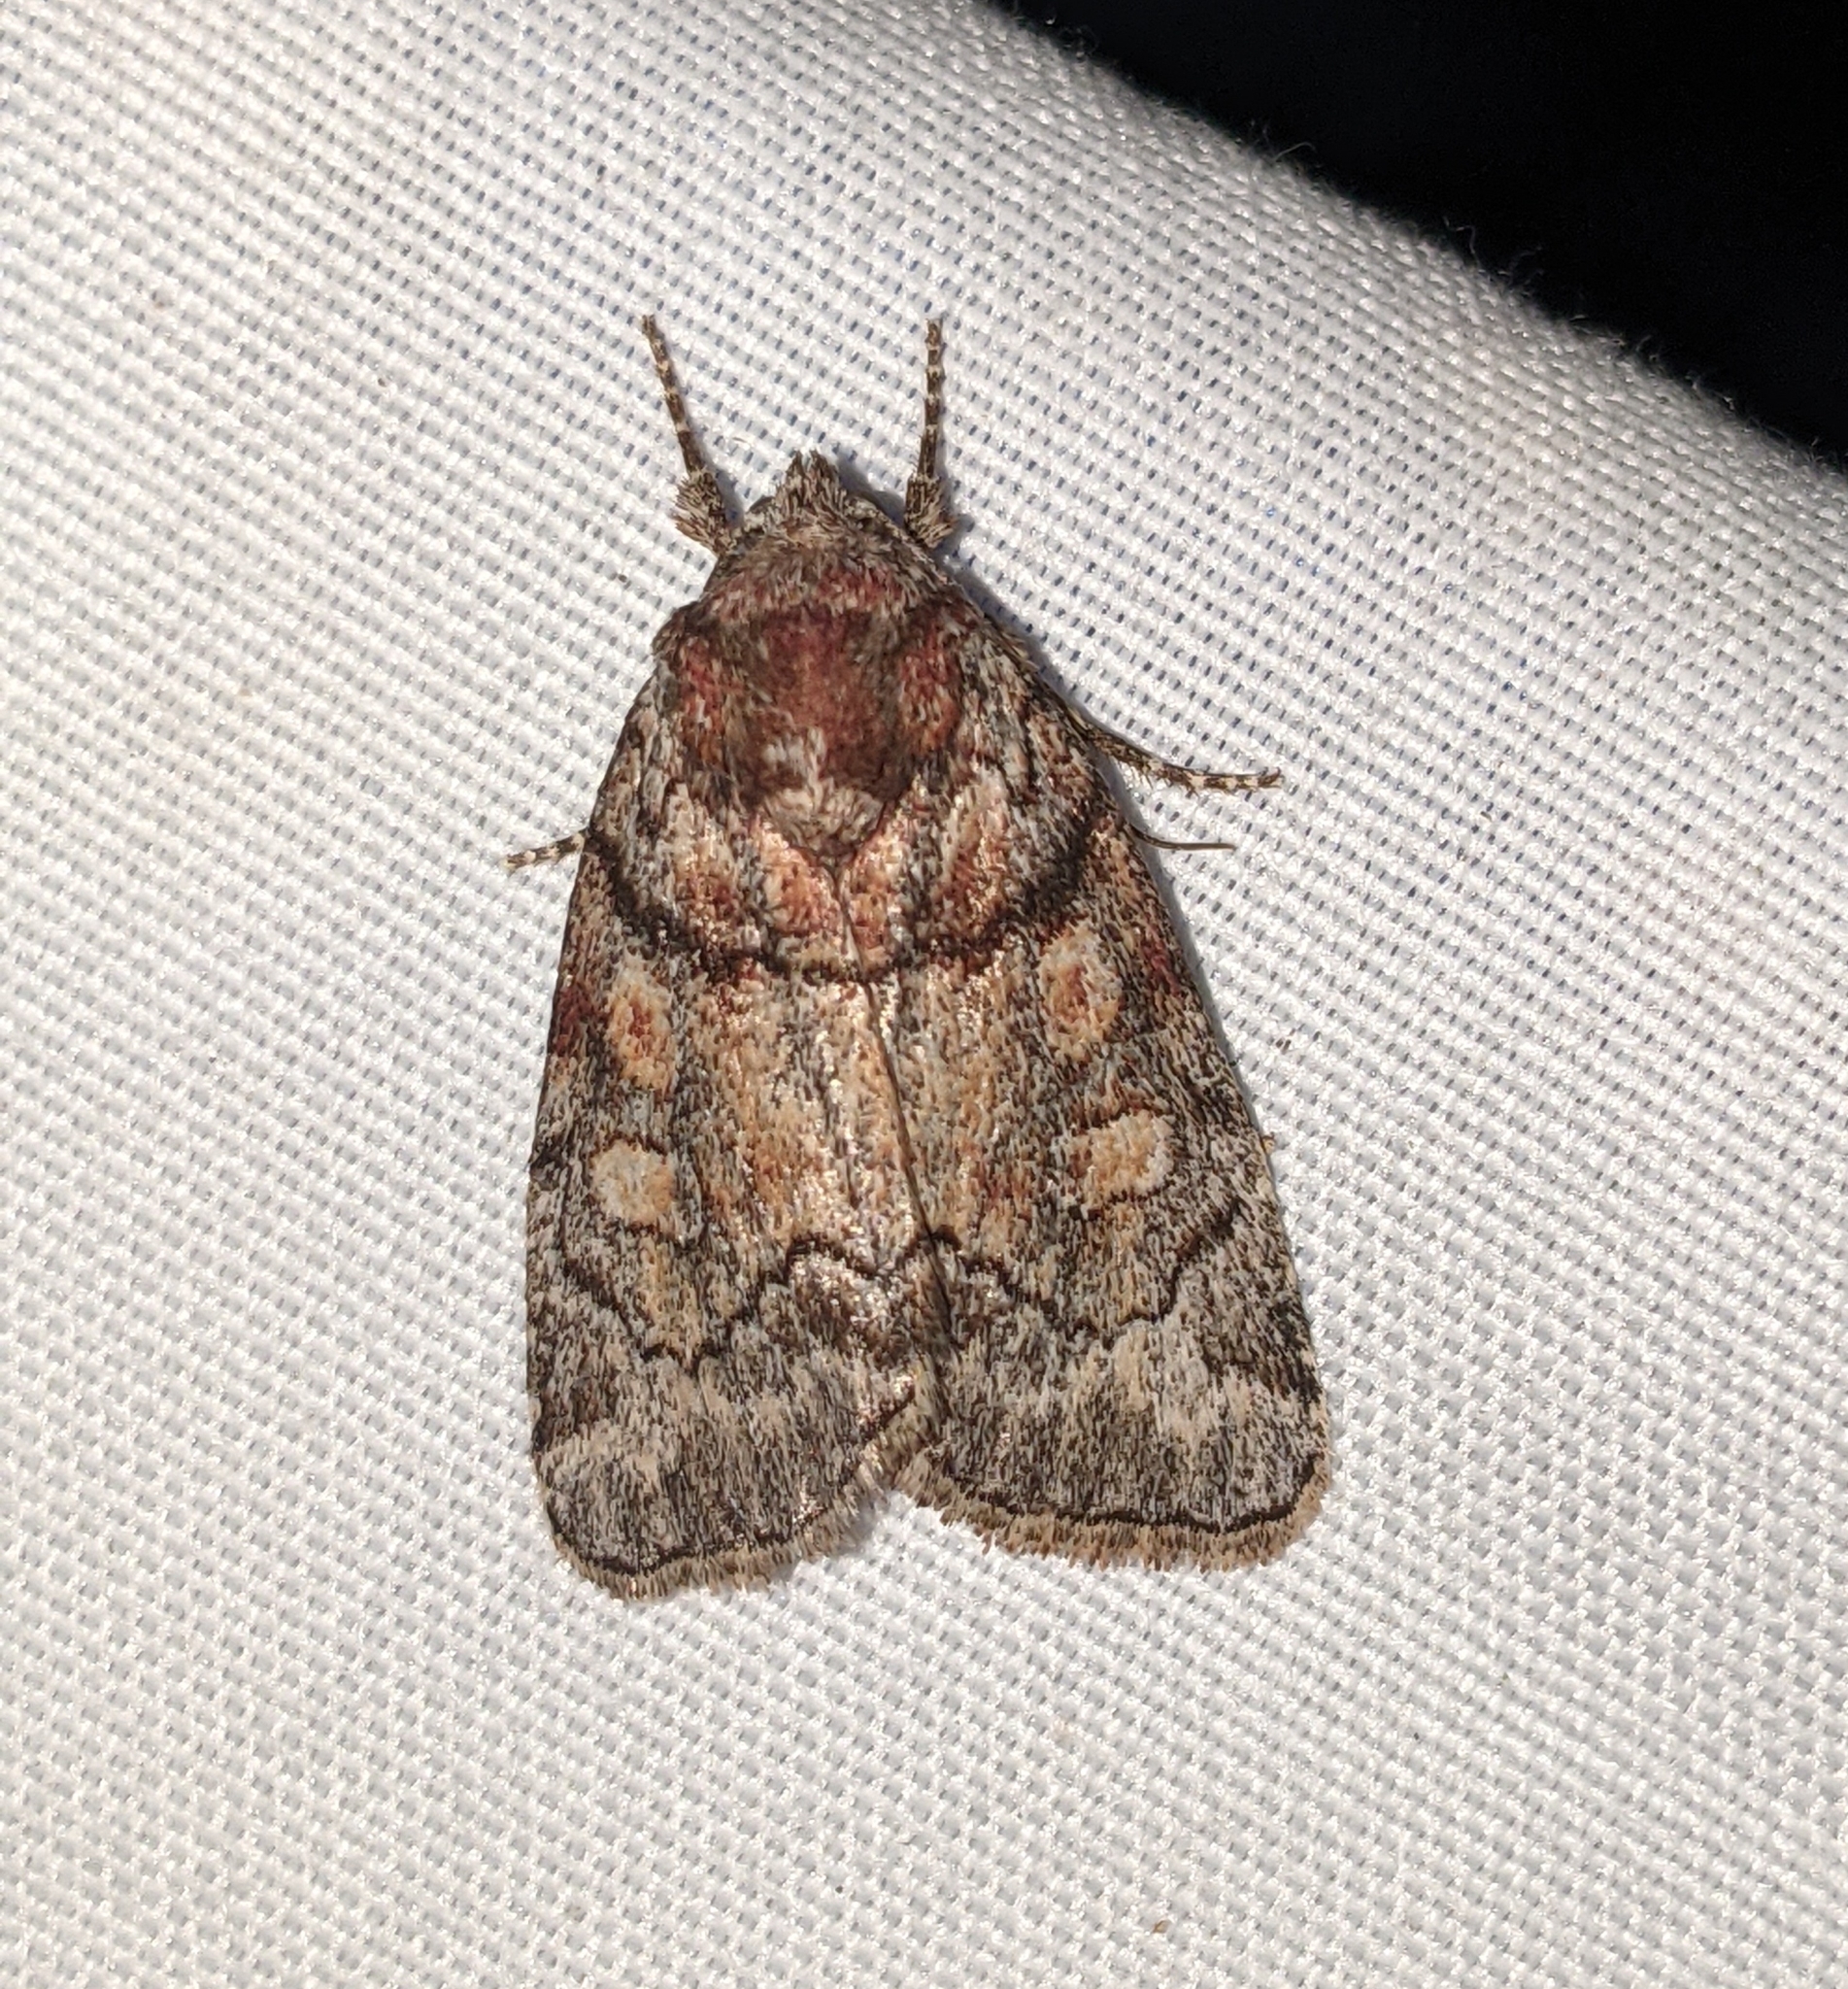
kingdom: Animalia
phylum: Arthropoda
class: Insecta
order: Lepidoptera
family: Noctuidae
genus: Cosmia
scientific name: Cosmia praeacuta
